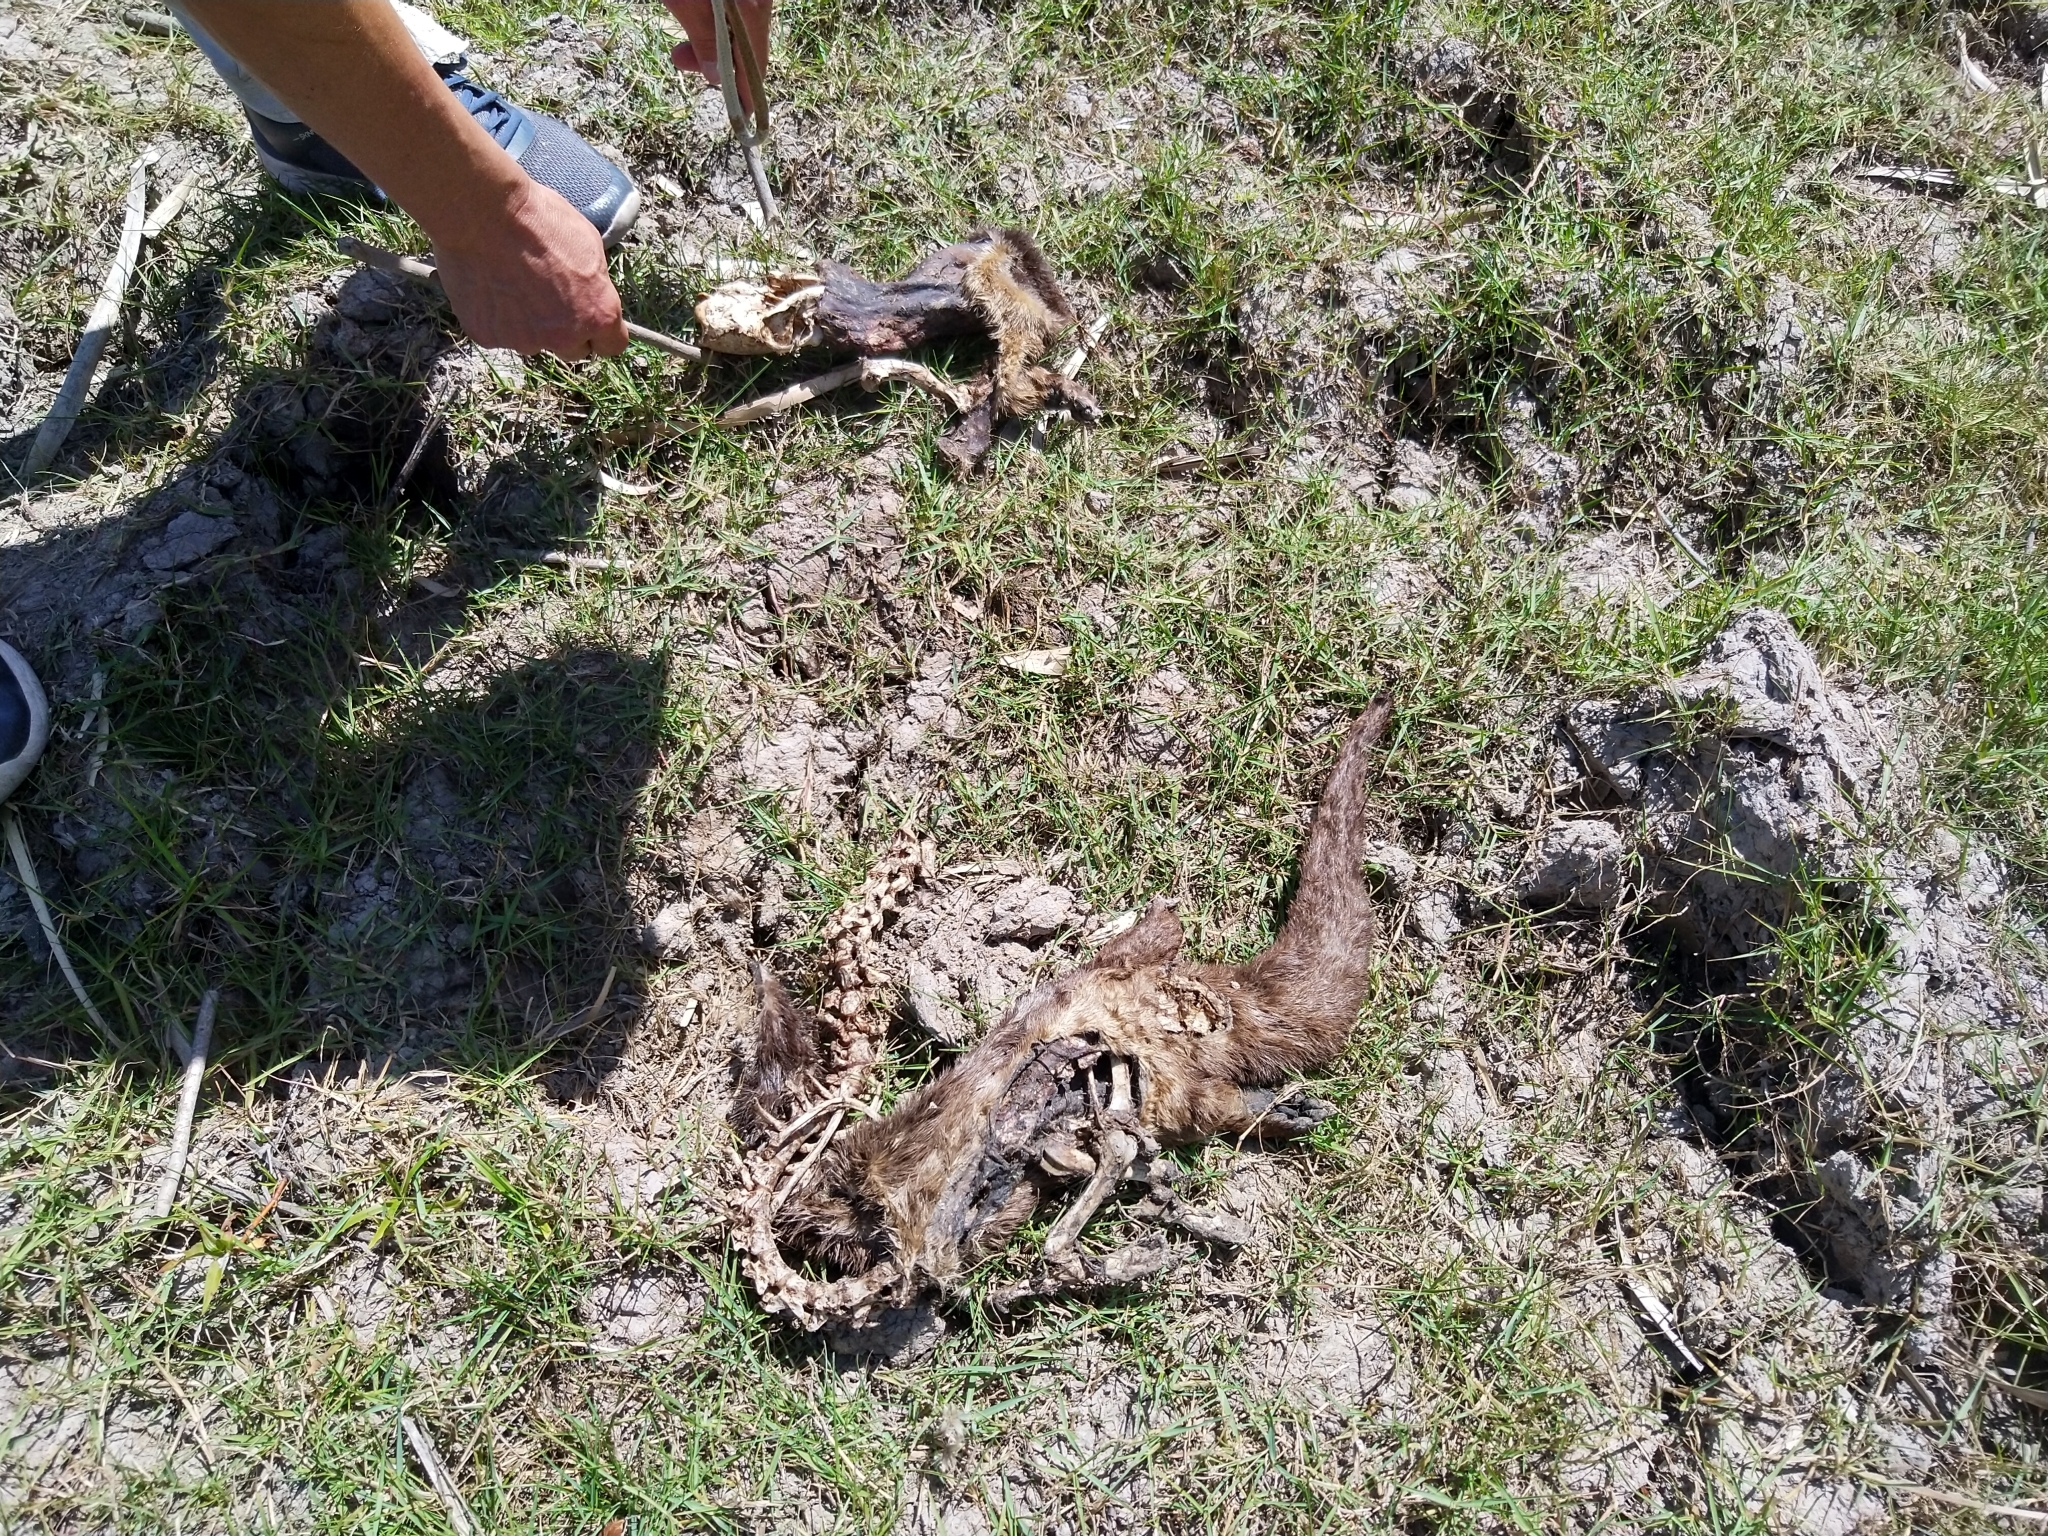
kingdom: Animalia
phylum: Chordata
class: Mammalia
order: Carnivora
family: Mustelidae
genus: Lontra
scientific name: Lontra longicaudis
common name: Neotropical otter
